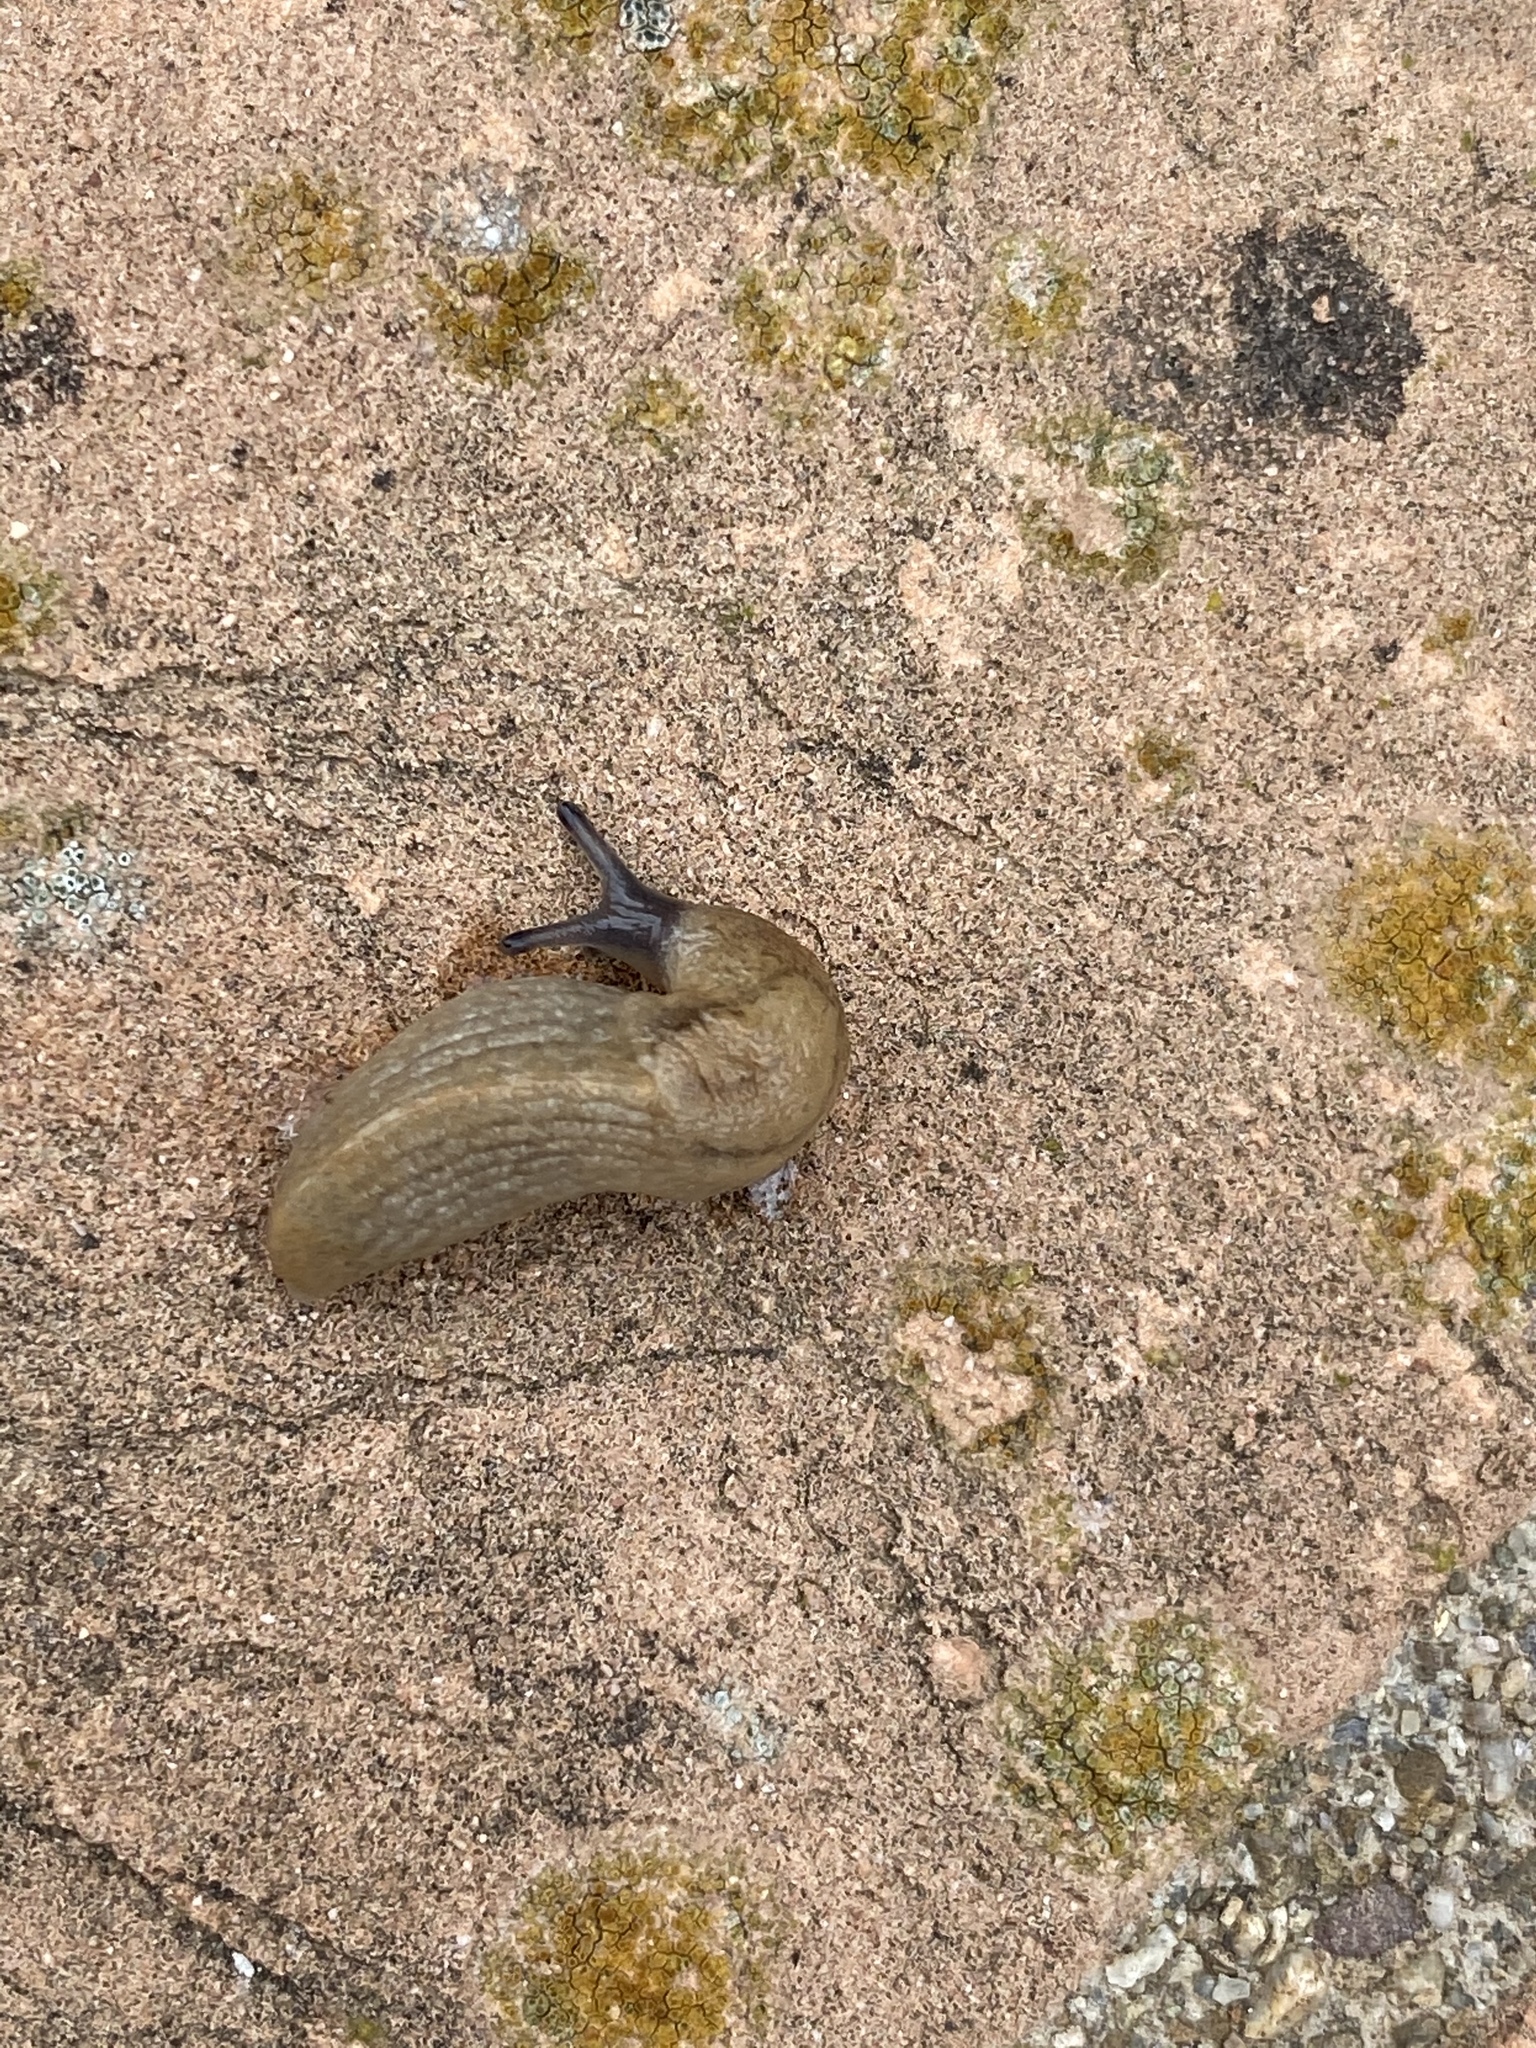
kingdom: Animalia
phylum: Mollusca
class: Gastropoda
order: Stylommatophora
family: Milacidae
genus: Tandonia
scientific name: Tandonia sowerbyi
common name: Keeled slug
